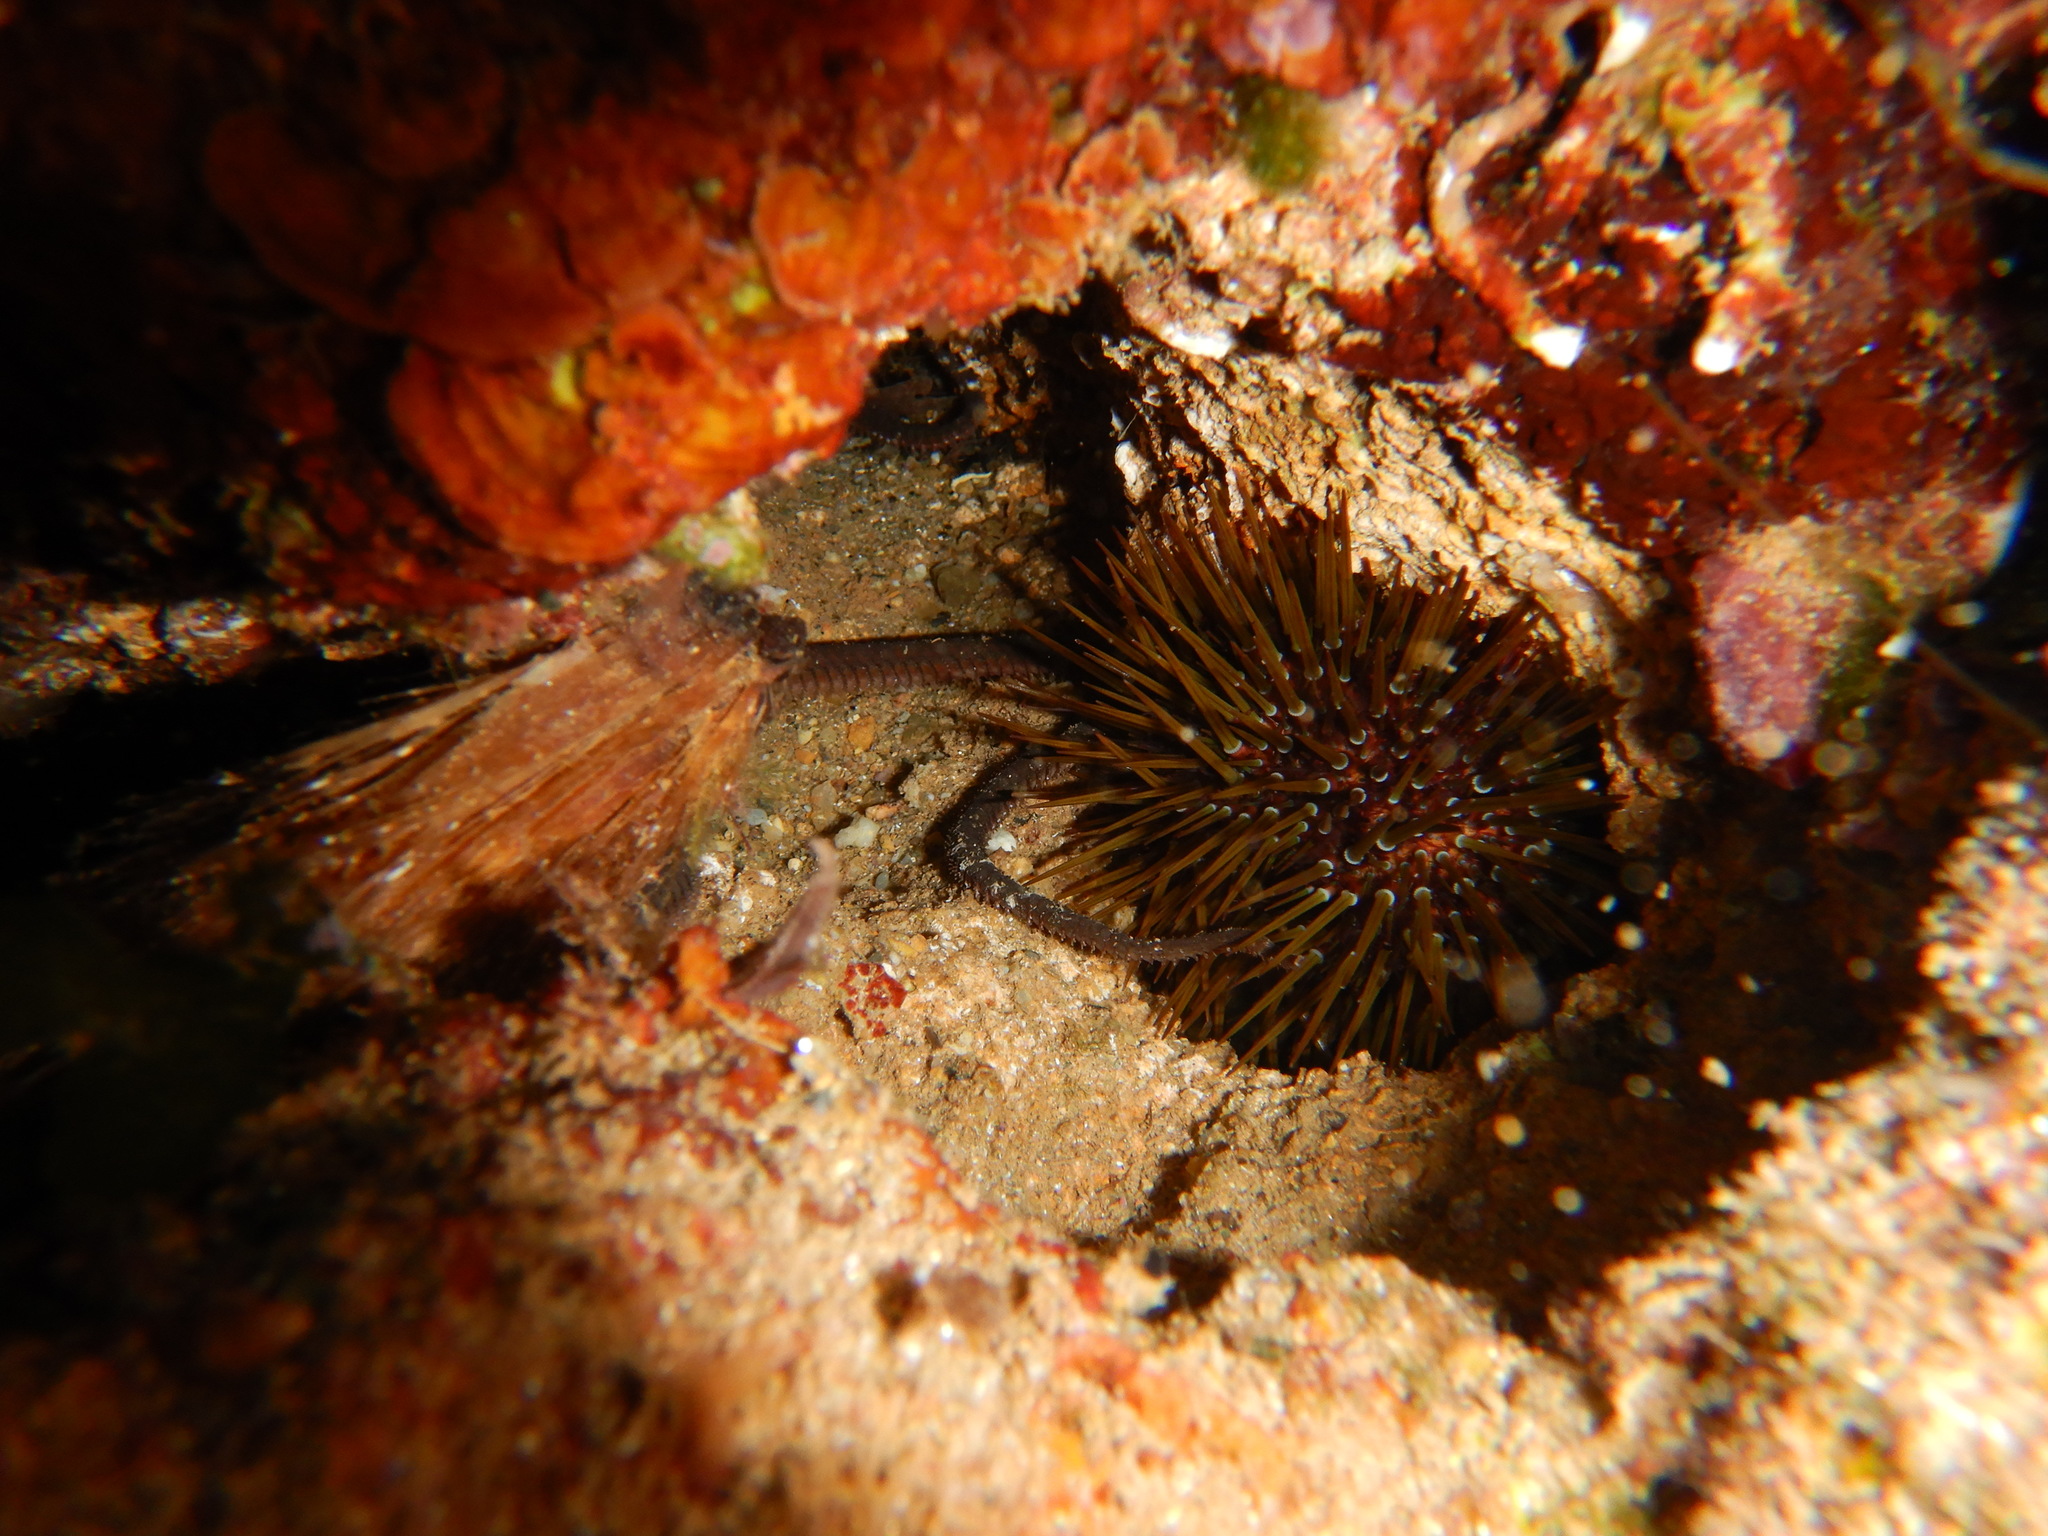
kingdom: Animalia
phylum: Echinodermata
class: Echinoidea
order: Camarodonta
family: Parechinidae
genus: Paracentrotus
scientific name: Paracentrotus lividus
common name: Purple sea urchin
